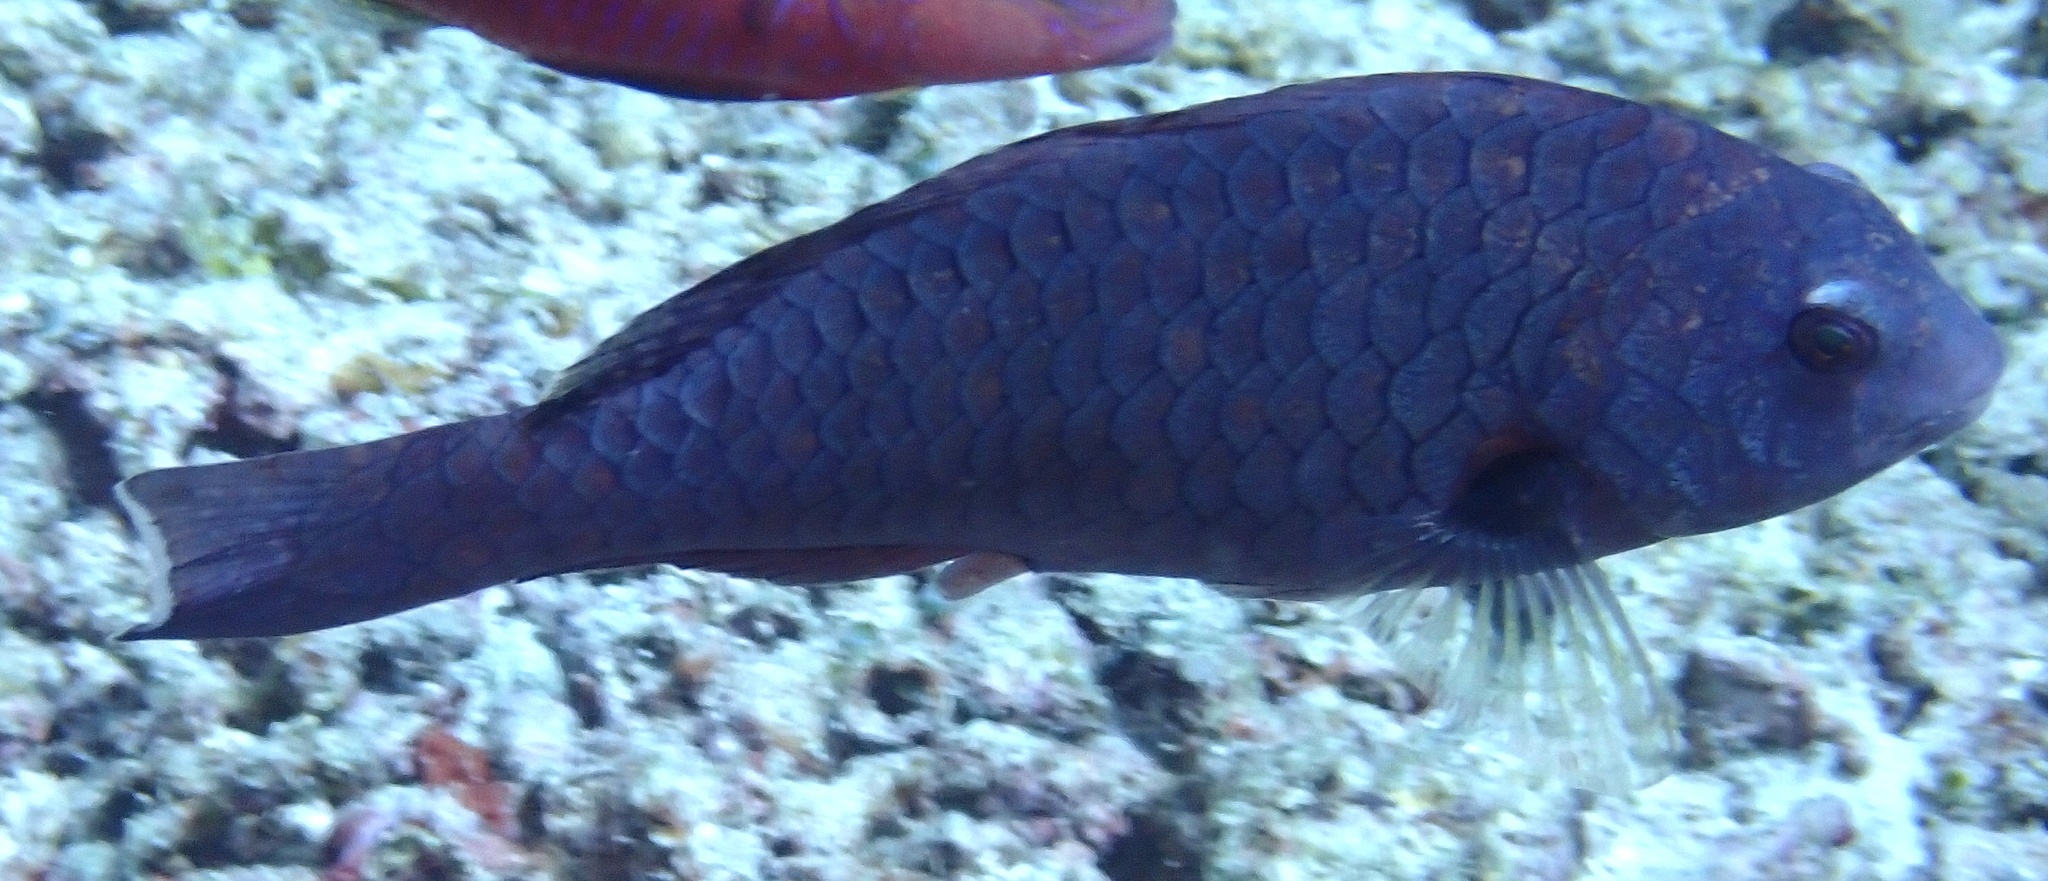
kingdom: Animalia
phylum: Chordata
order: Perciformes
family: Scaridae
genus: Calotomus
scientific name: Calotomus carolinus
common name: Bucktooth
